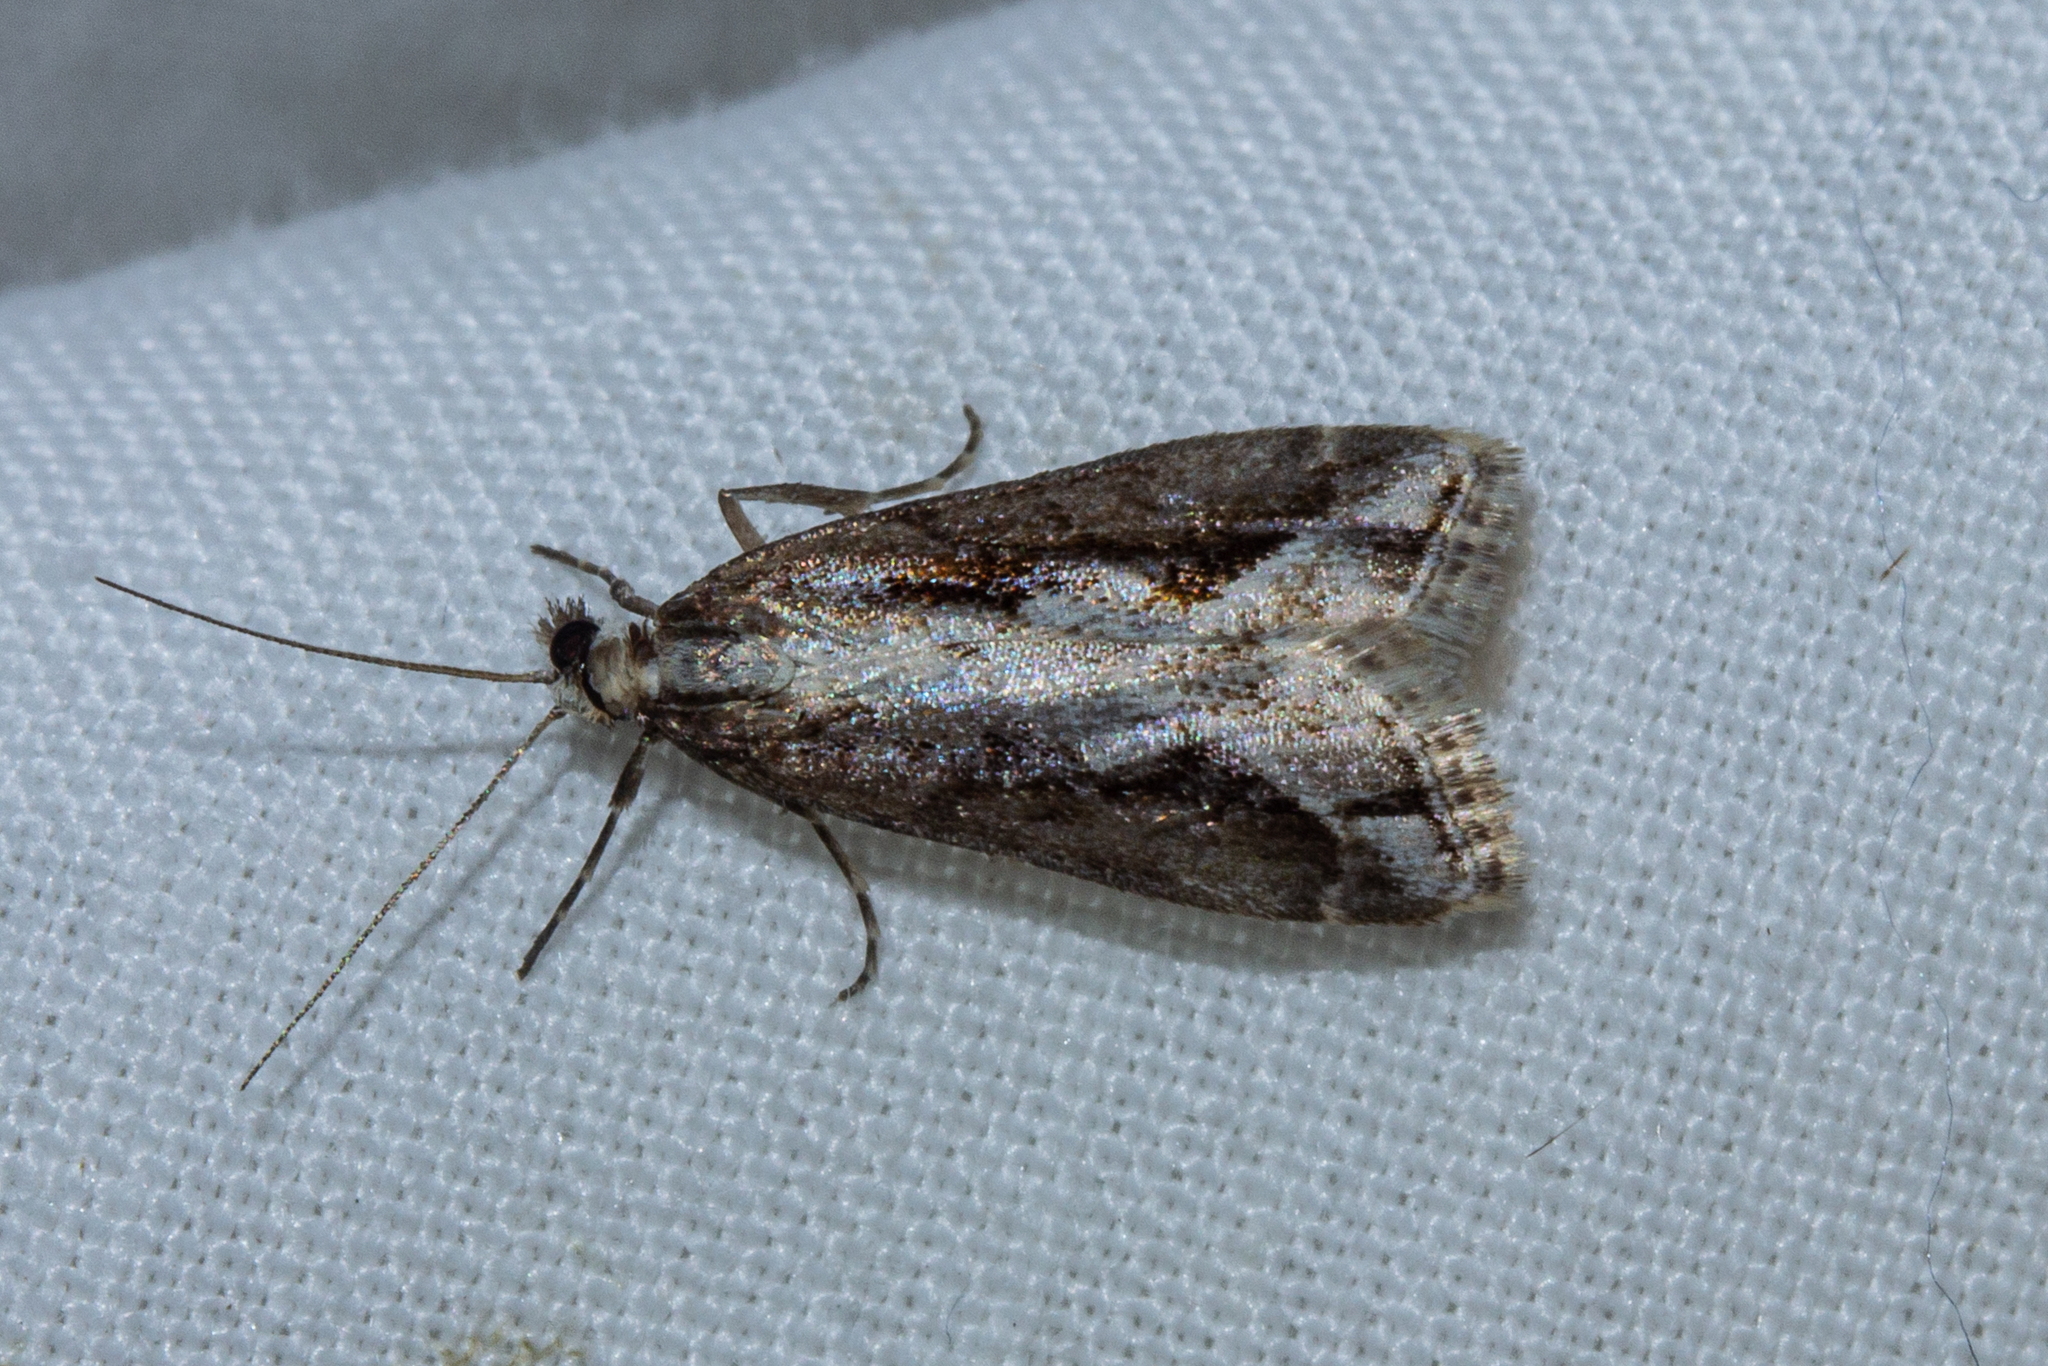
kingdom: Animalia
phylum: Arthropoda
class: Insecta
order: Lepidoptera
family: Crambidae
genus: Eudonia
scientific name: Eudonia steropaea
